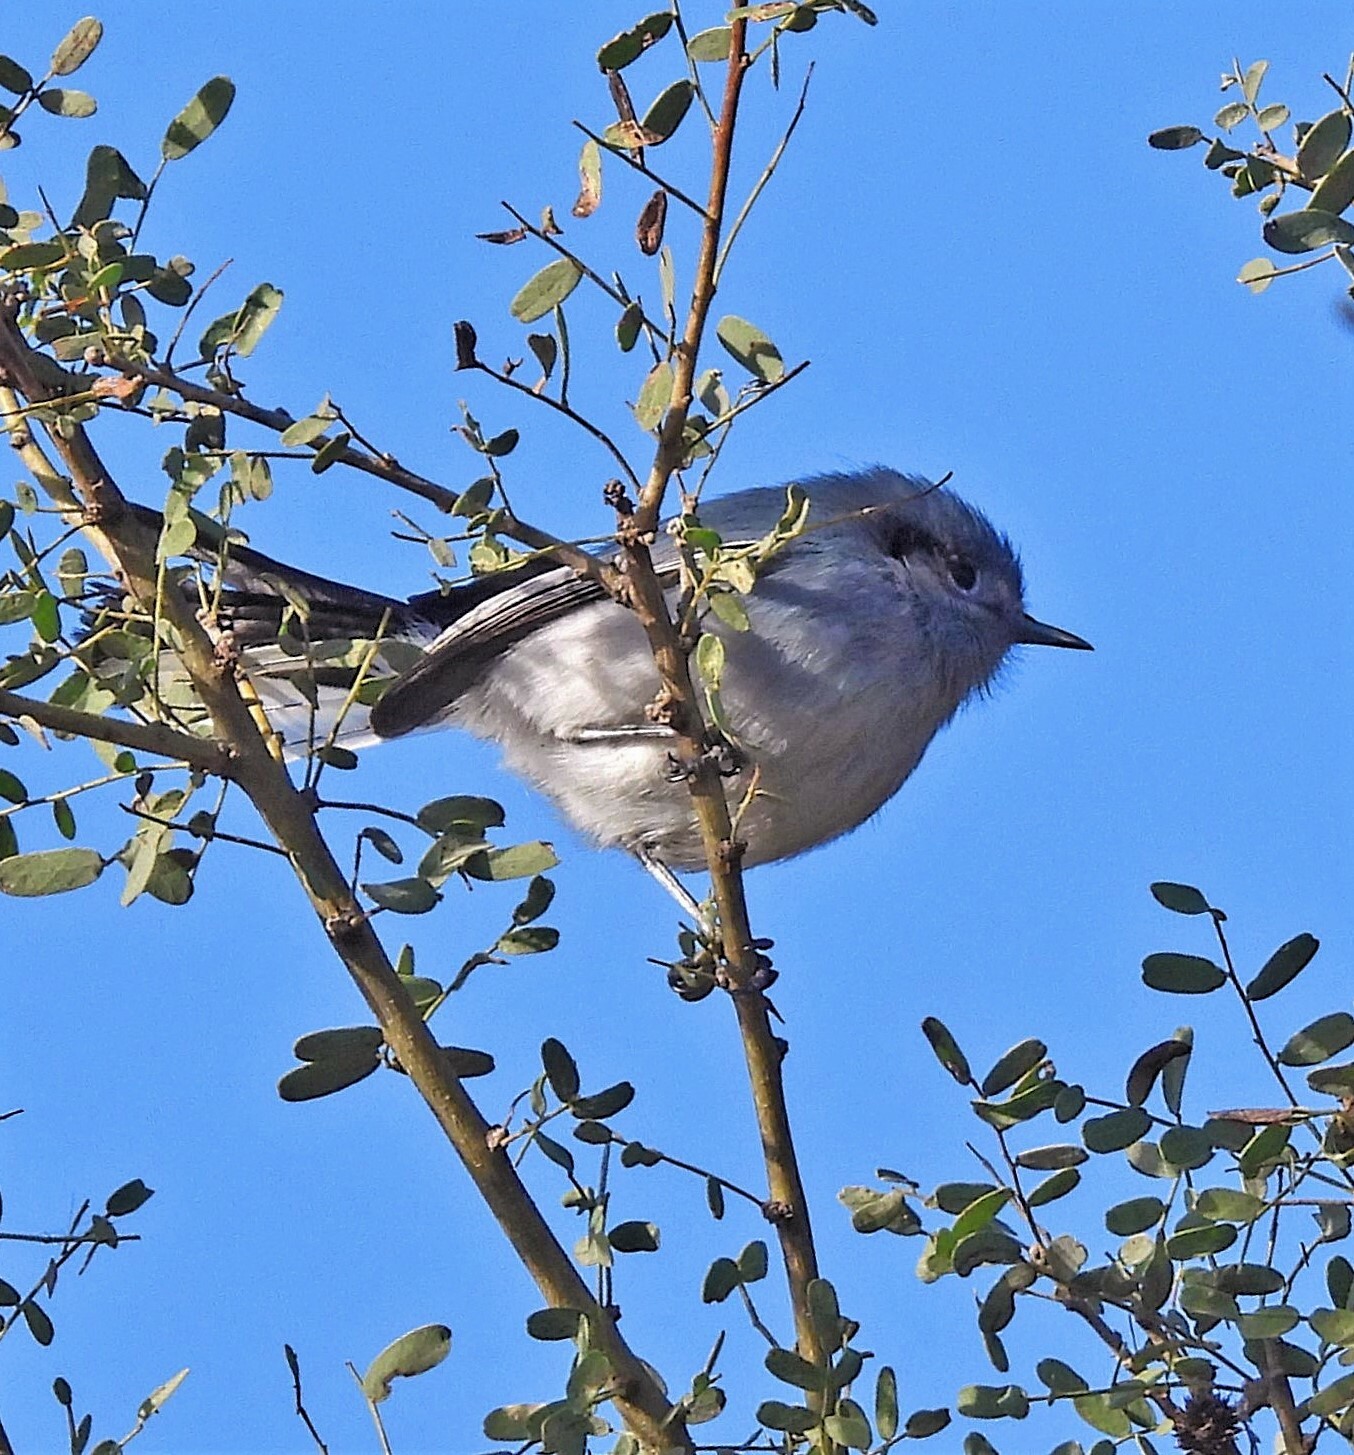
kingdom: Animalia
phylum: Chordata
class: Aves
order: Passeriformes
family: Polioptilidae
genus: Polioptila
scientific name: Polioptila dumicola
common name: Masked gnatcatcher
